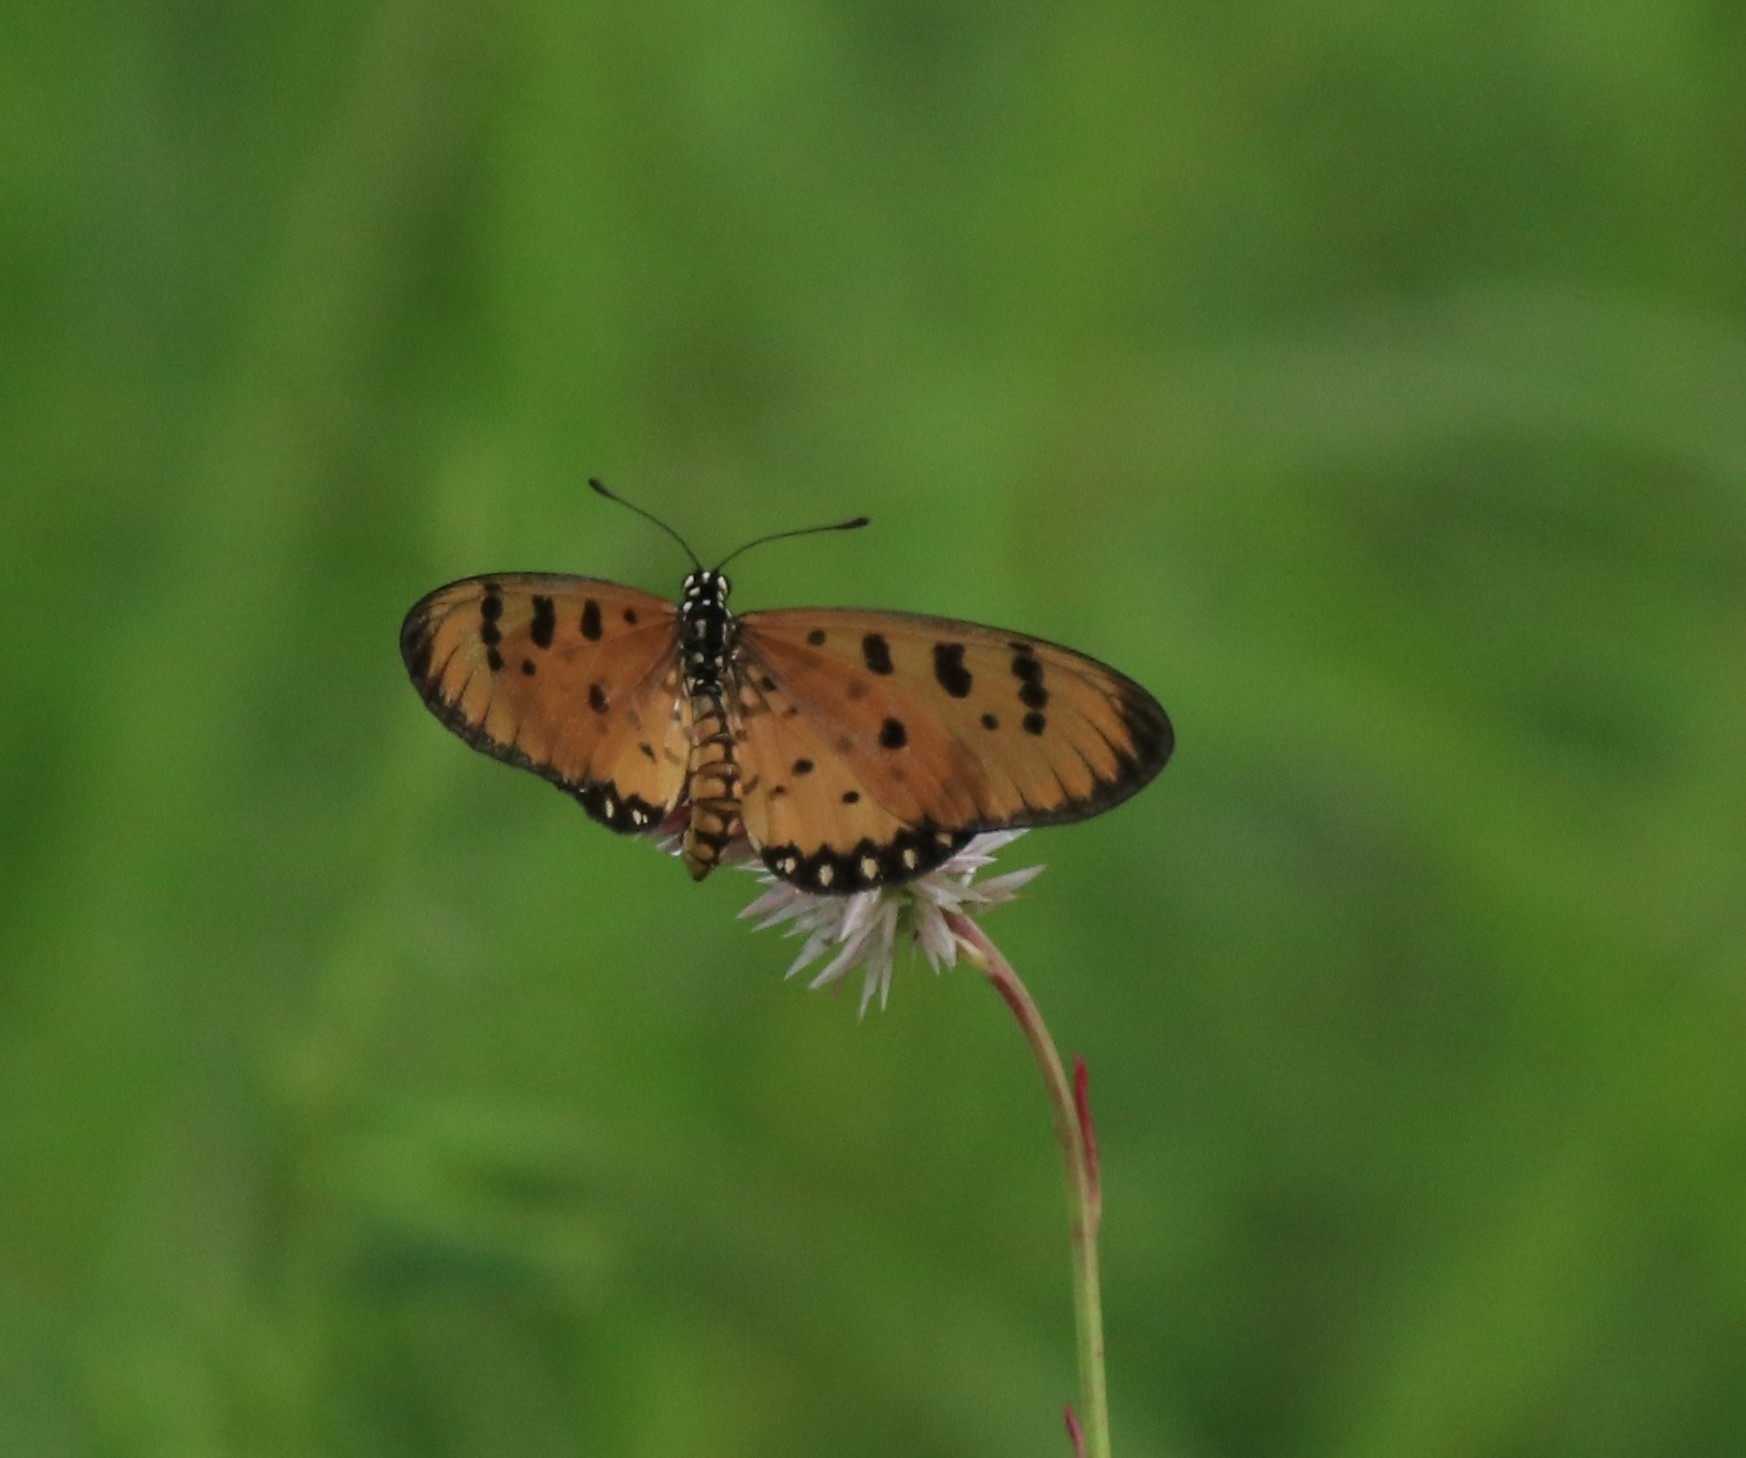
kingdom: Animalia
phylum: Arthropoda
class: Insecta
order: Lepidoptera
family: Nymphalidae
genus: Acraea
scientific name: Acraea terpsicore
